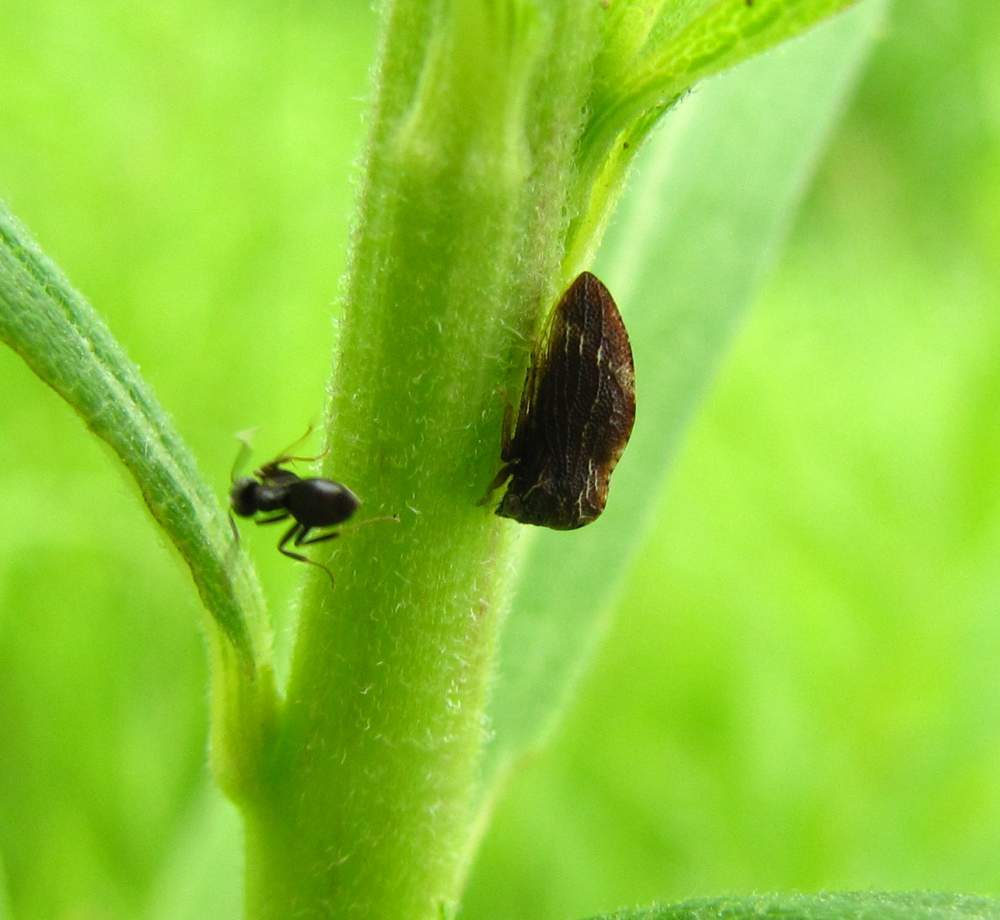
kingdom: Animalia
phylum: Arthropoda
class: Insecta
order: Hemiptera
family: Membracidae
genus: Publilia
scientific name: Publilia concava
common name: Aster treehopper
